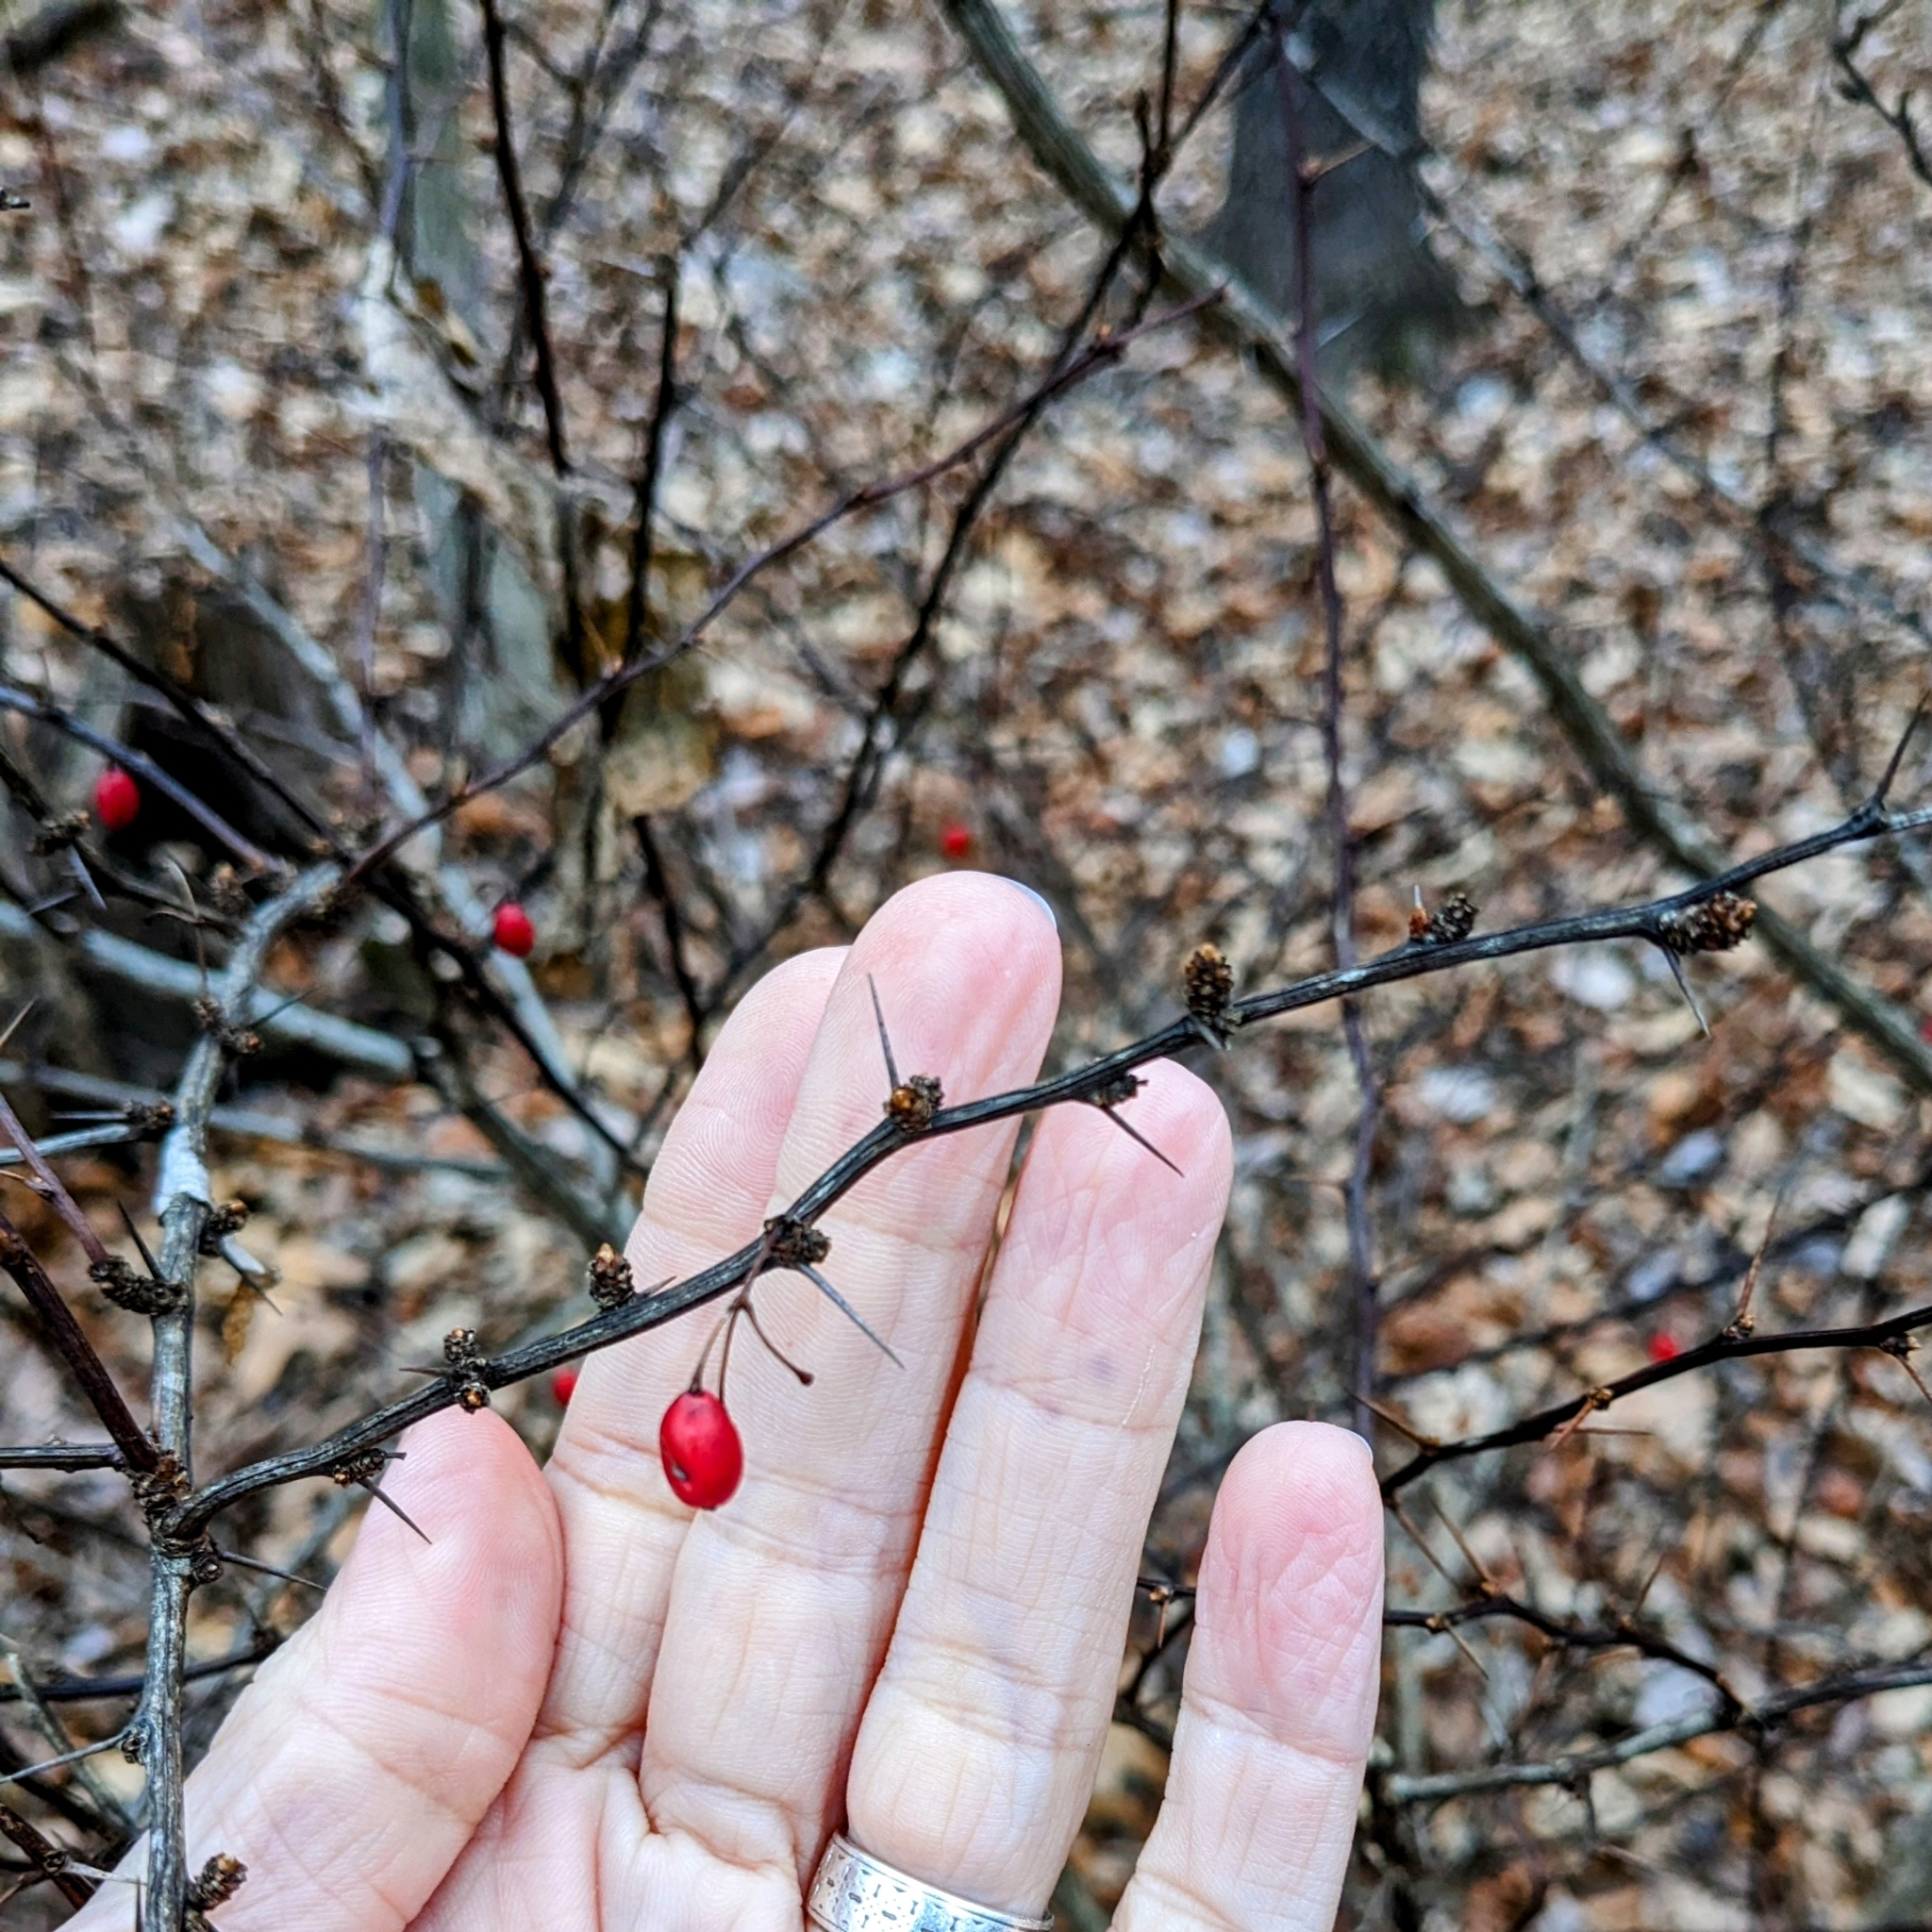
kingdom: Plantae
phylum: Tracheophyta
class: Magnoliopsida
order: Ranunculales
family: Berberidaceae
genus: Berberis
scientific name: Berberis thunbergii
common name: Japanese barberry
